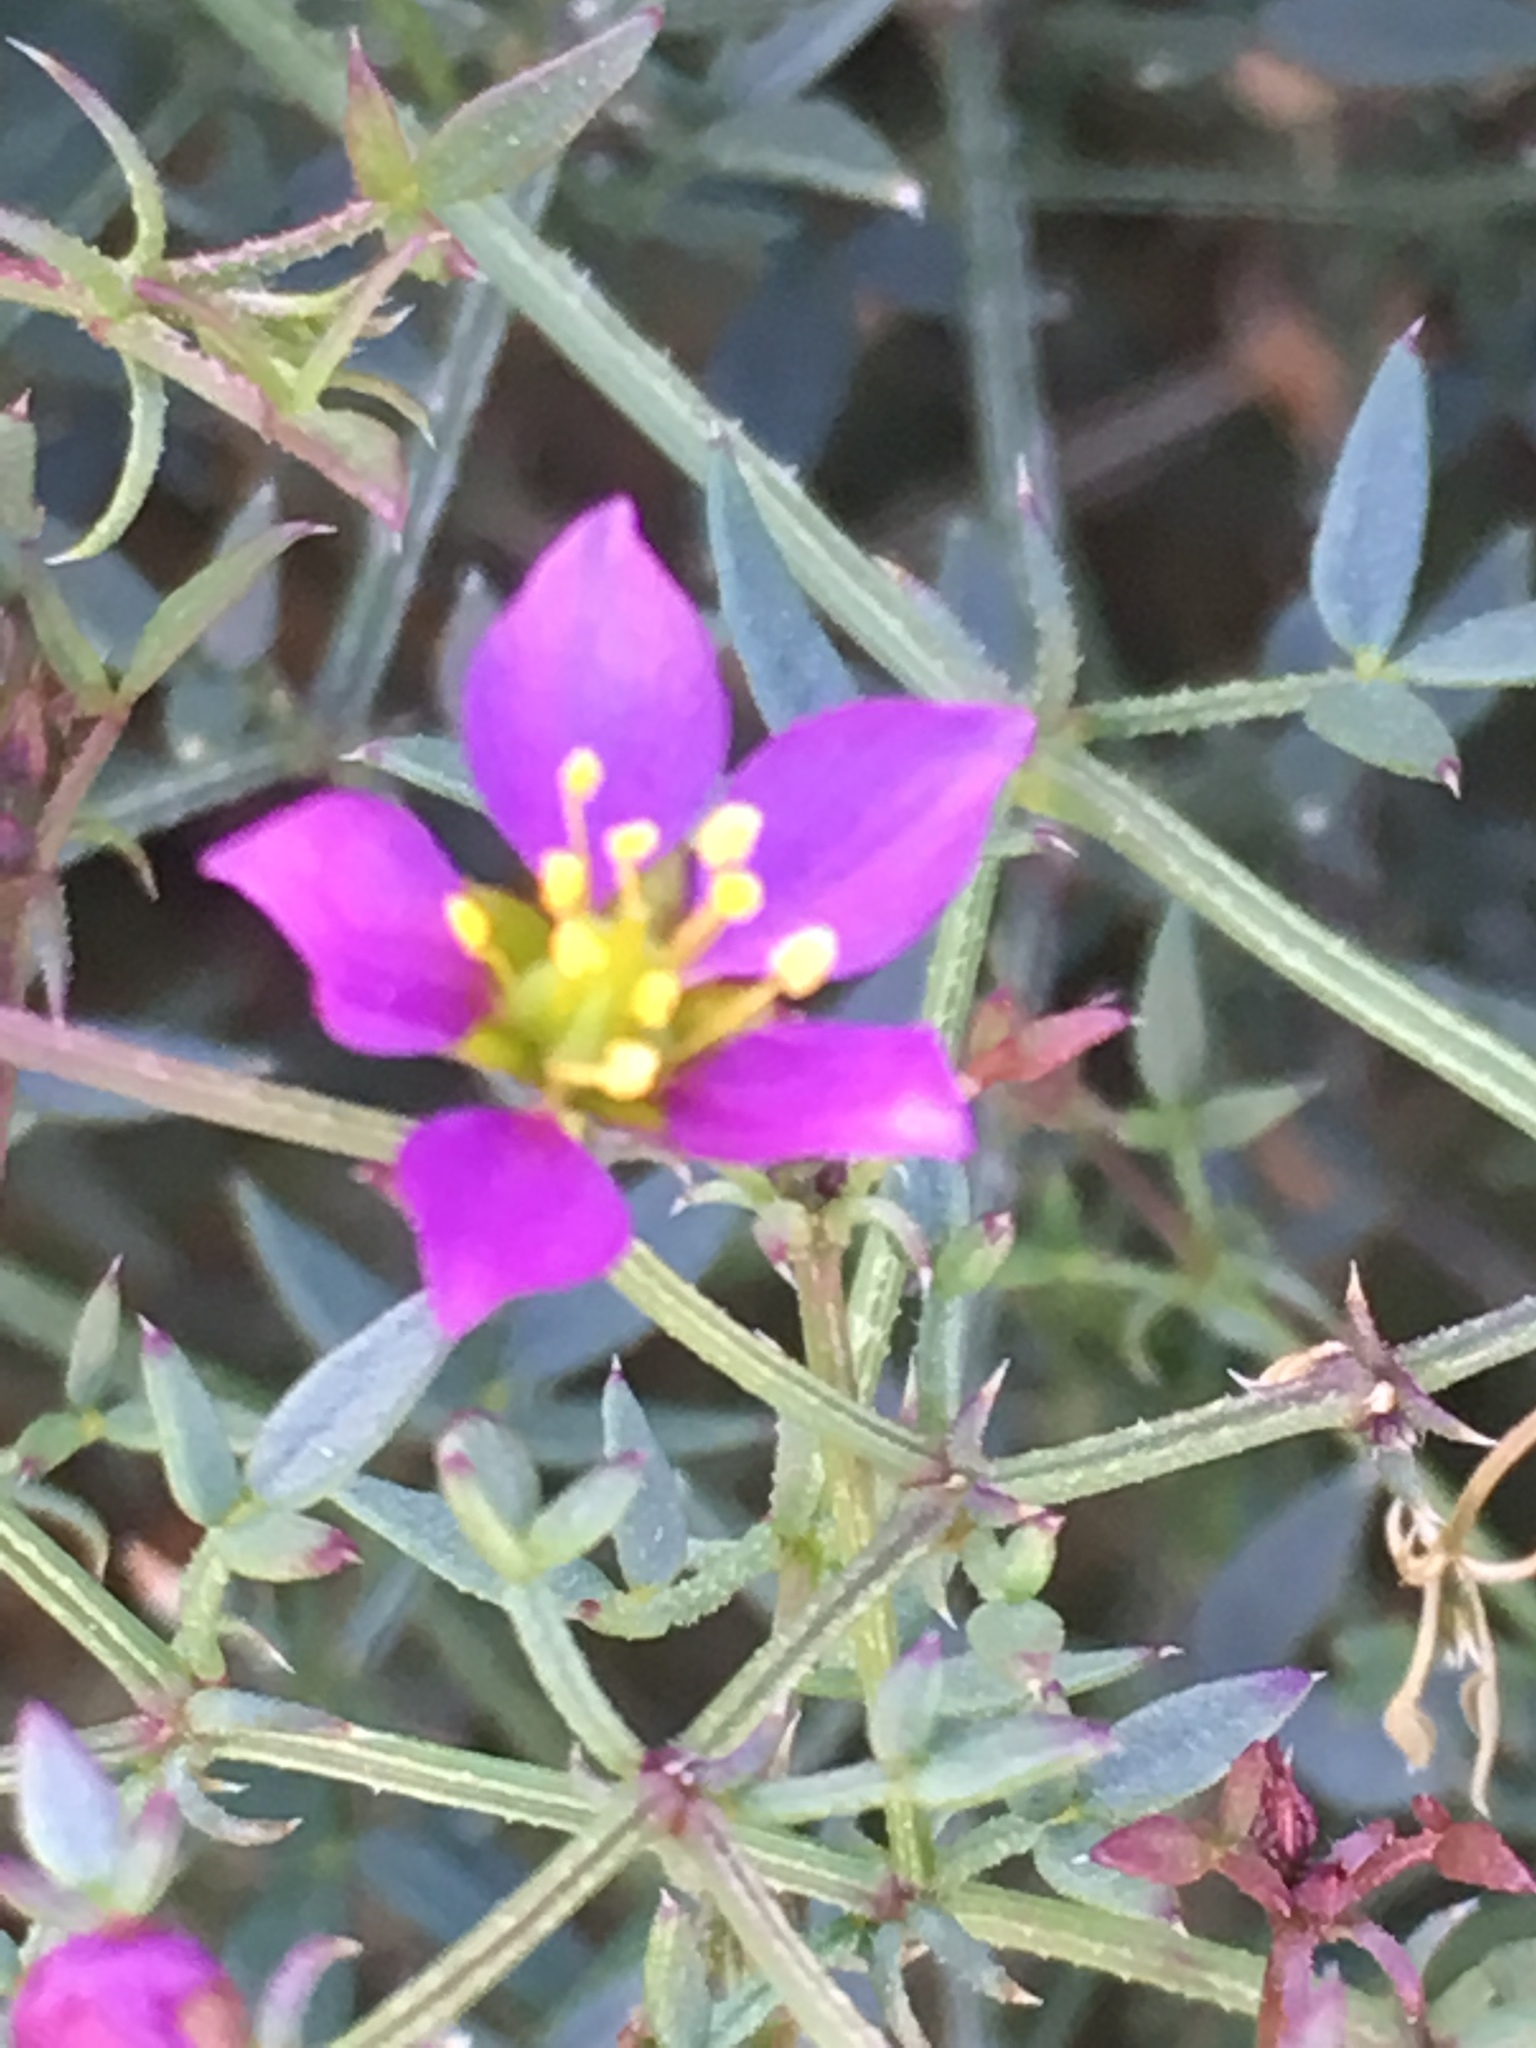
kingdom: Plantae
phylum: Tracheophyta
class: Magnoliopsida
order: Zygophyllales
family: Zygophyllaceae
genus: Fagonia
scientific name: Fagonia laevis
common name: California fagonbush
